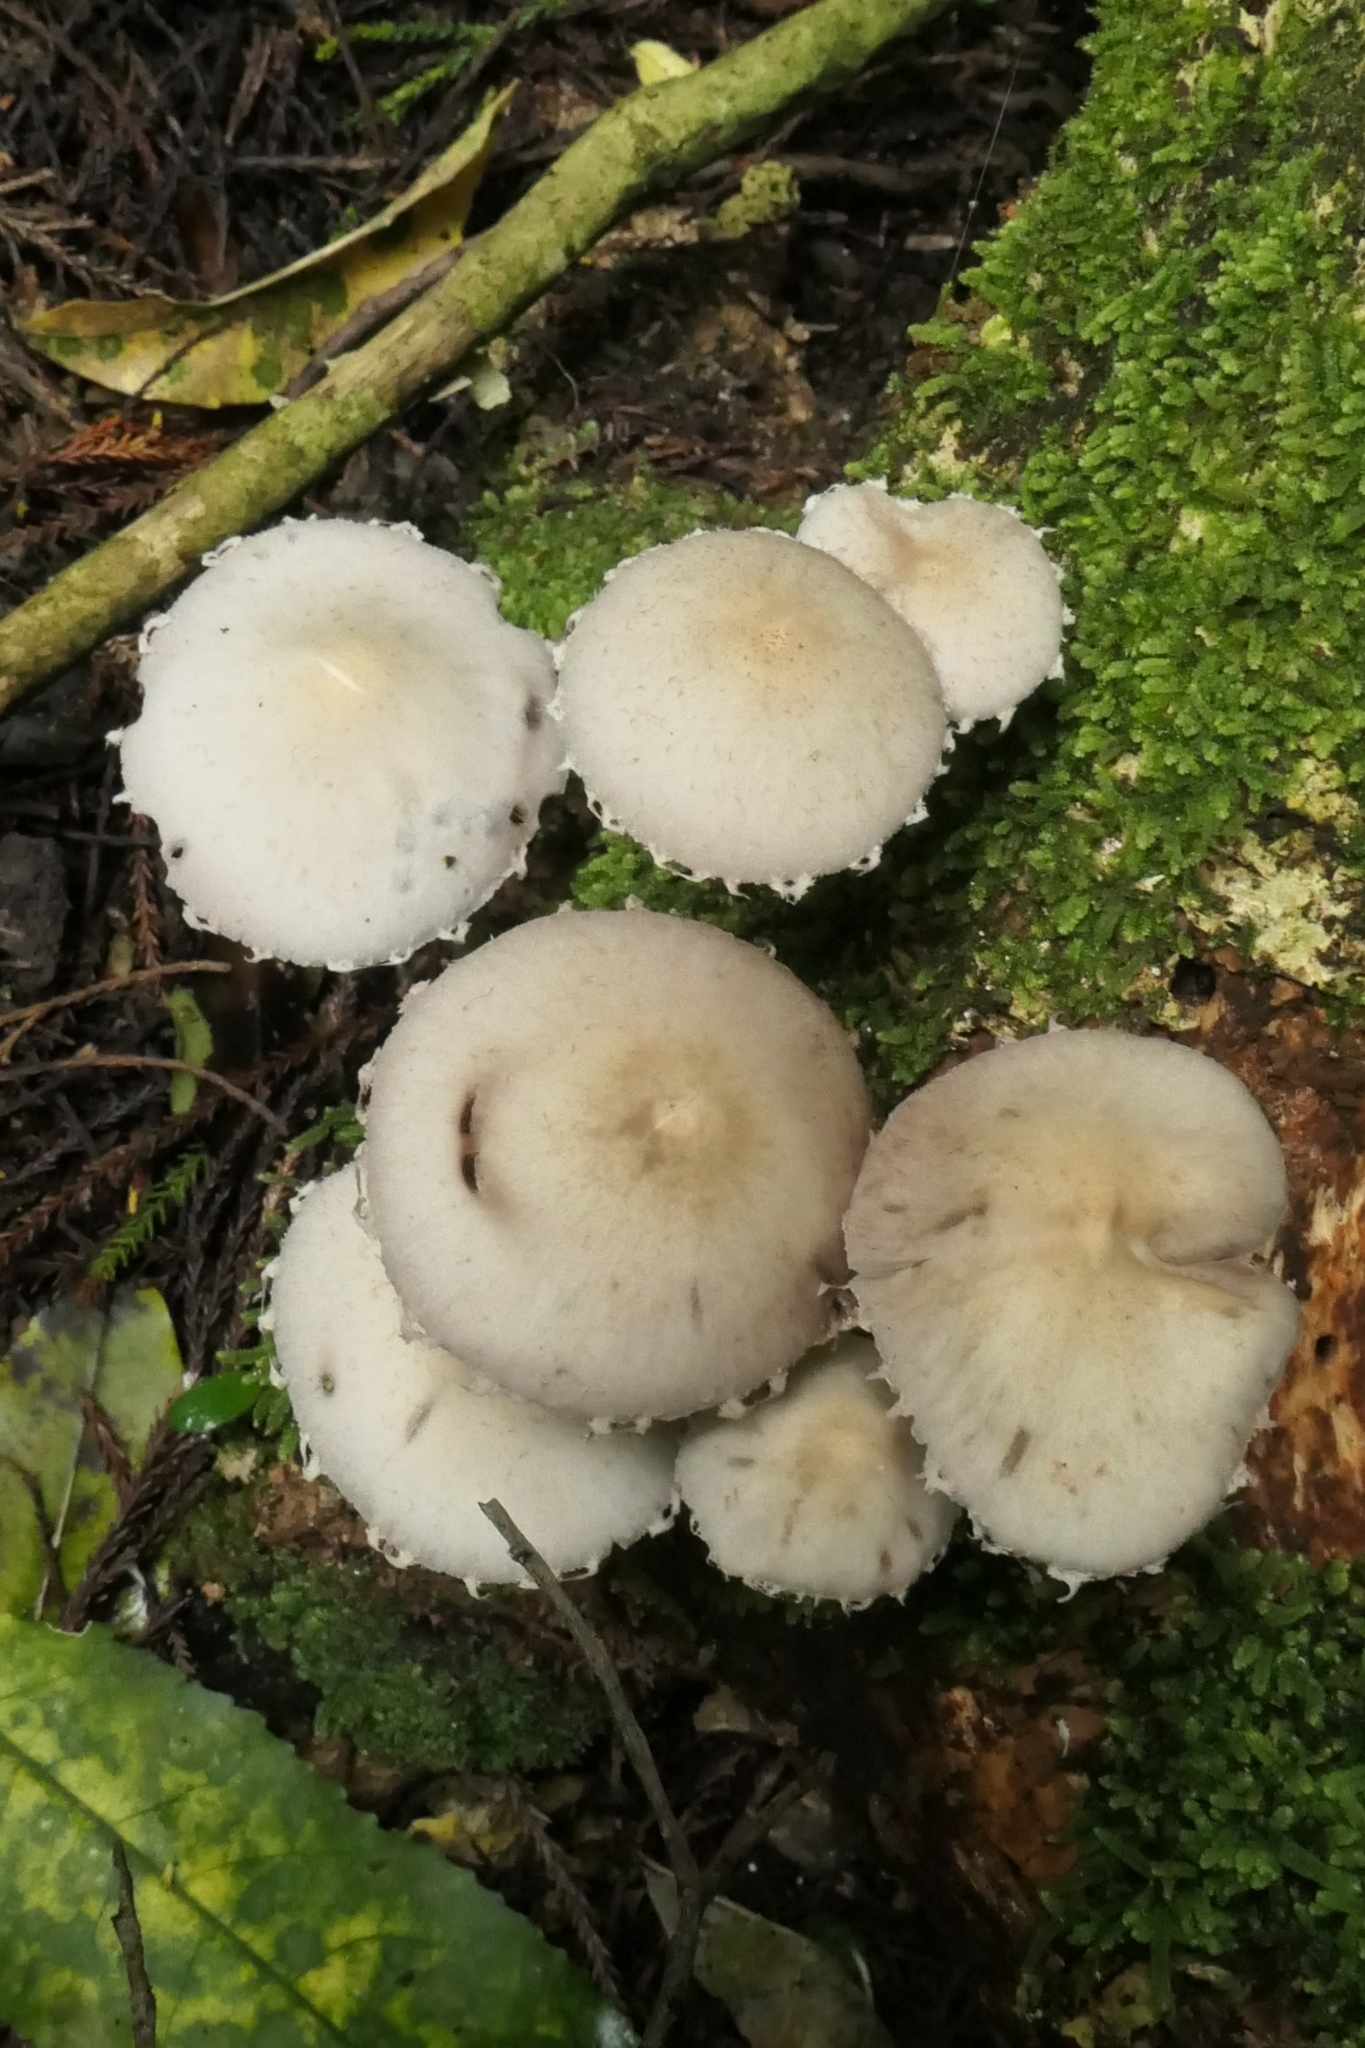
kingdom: Fungi
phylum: Basidiomycota
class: Agaricomycetes
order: Agaricales
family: Psathyrellaceae
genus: Candolleomyces
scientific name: Candolleomyces candolleanus
